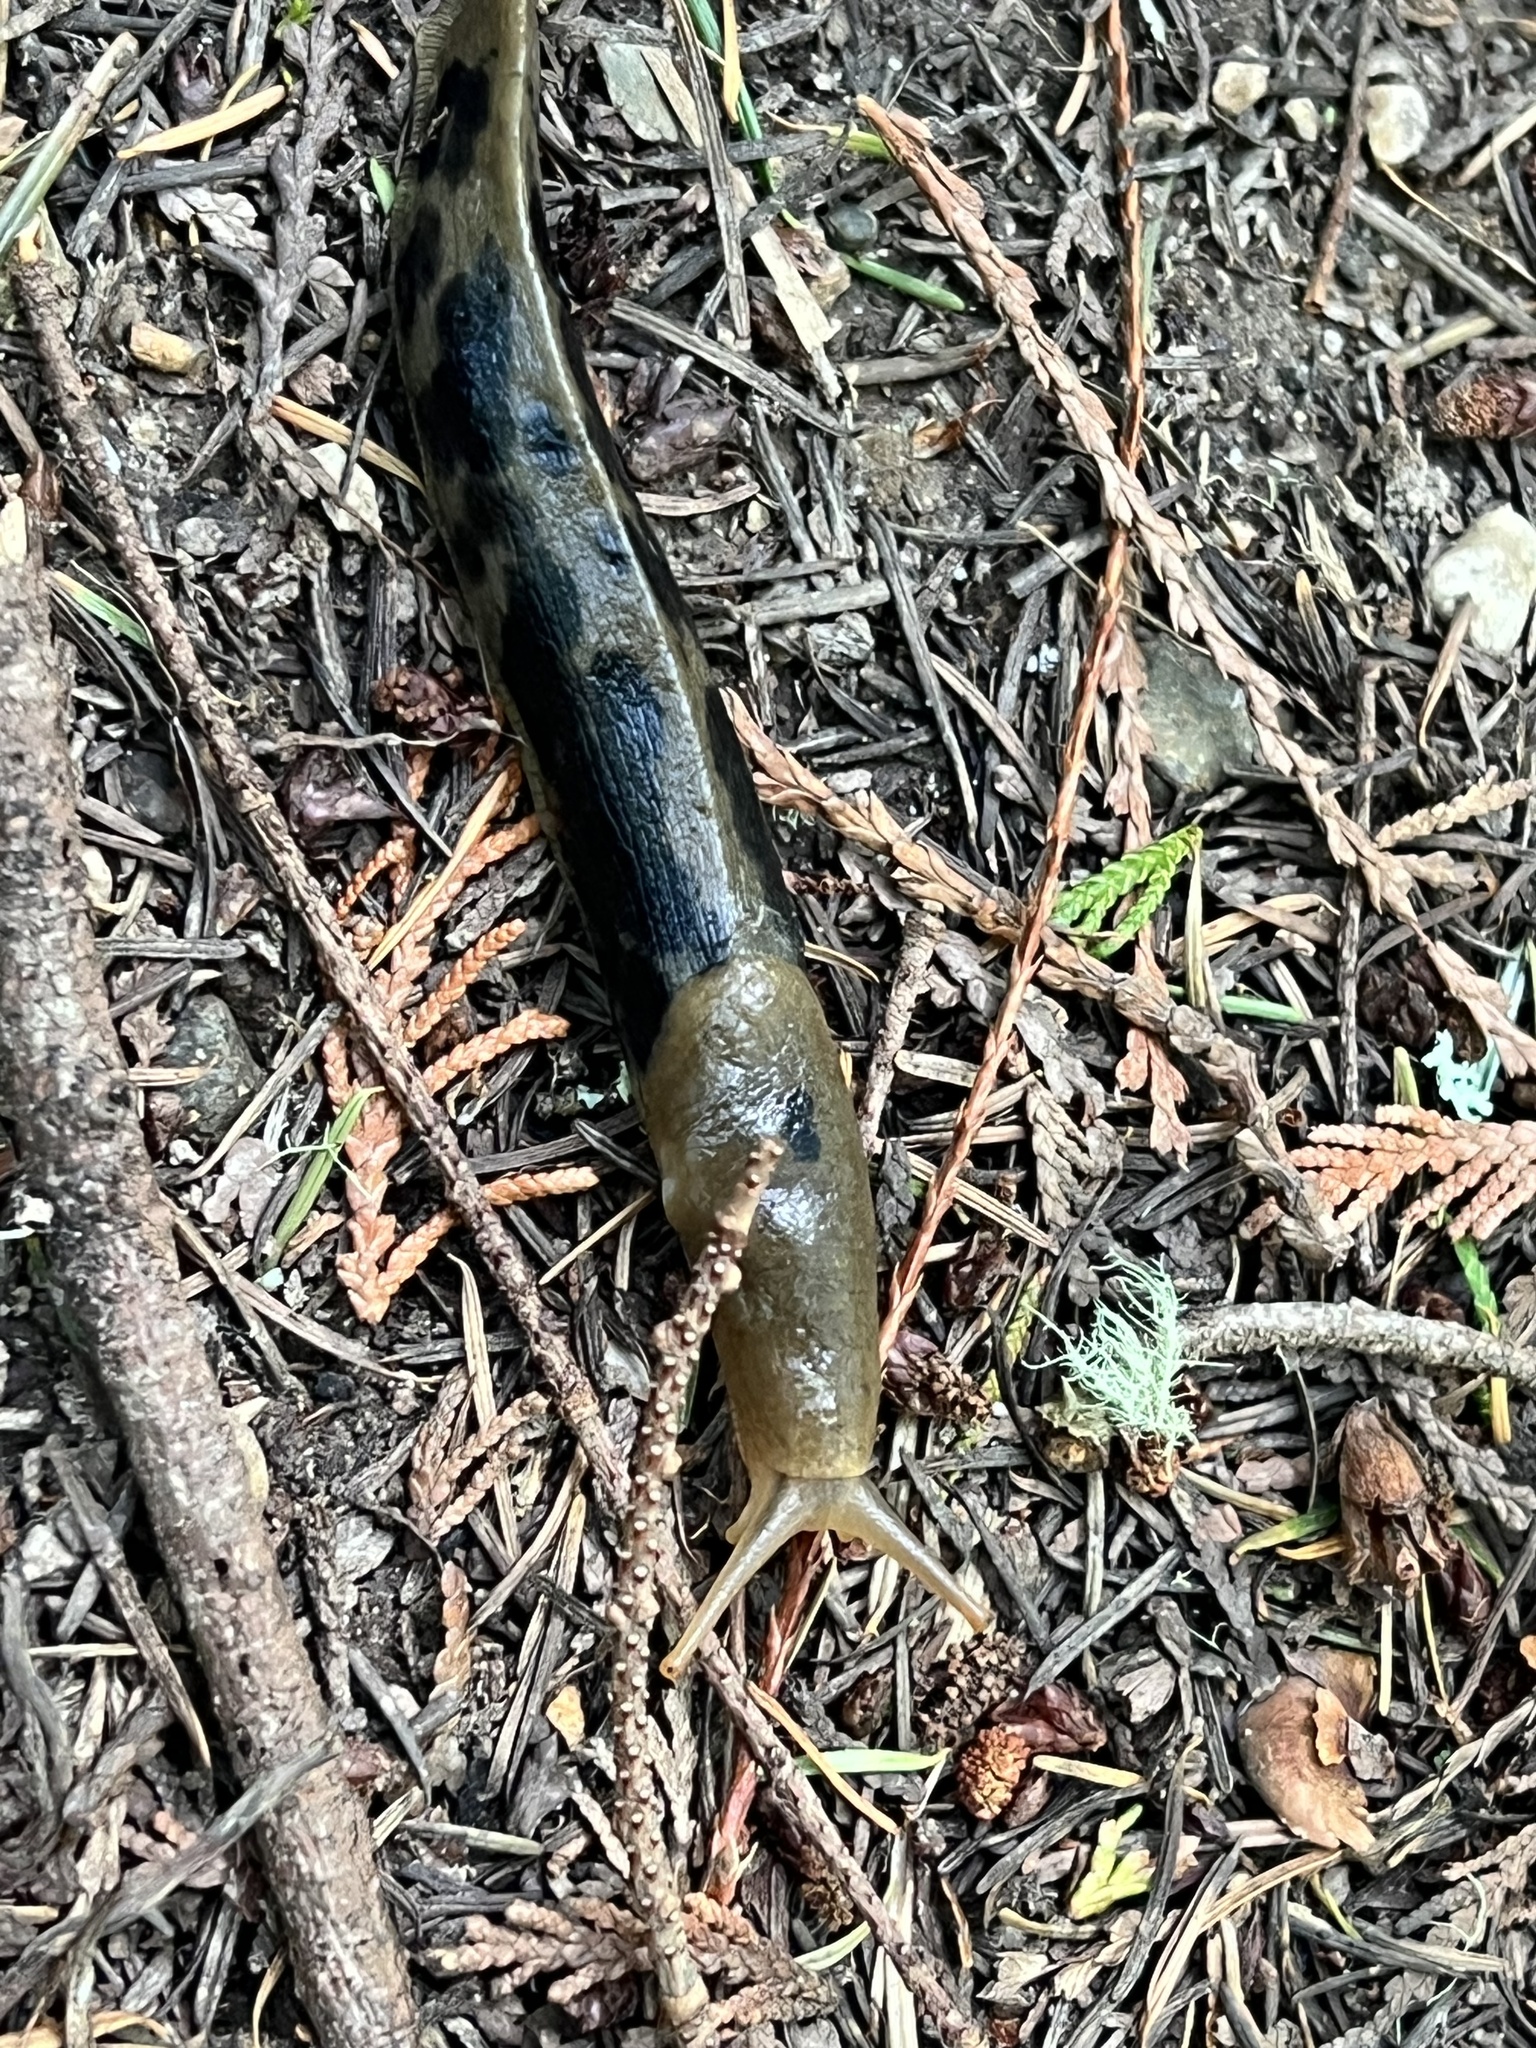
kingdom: Animalia
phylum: Mollusca
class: Gastropoda
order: Stylommatophora
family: Ariolimacidae
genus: Ariolimax
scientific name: Ariolimax columbianus
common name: Pacific banana slug
